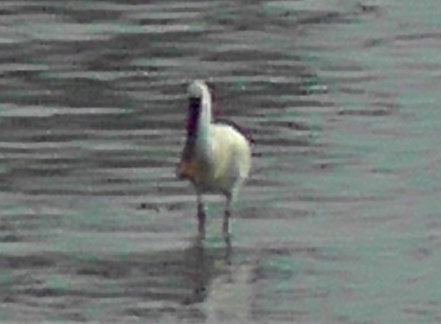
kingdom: Animalia
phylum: Chordata
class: Aves
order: Pelecaniformes
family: Threskiornithidae
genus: Platalea
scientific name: Platalea leucorodia
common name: Eurasian spoonbill
